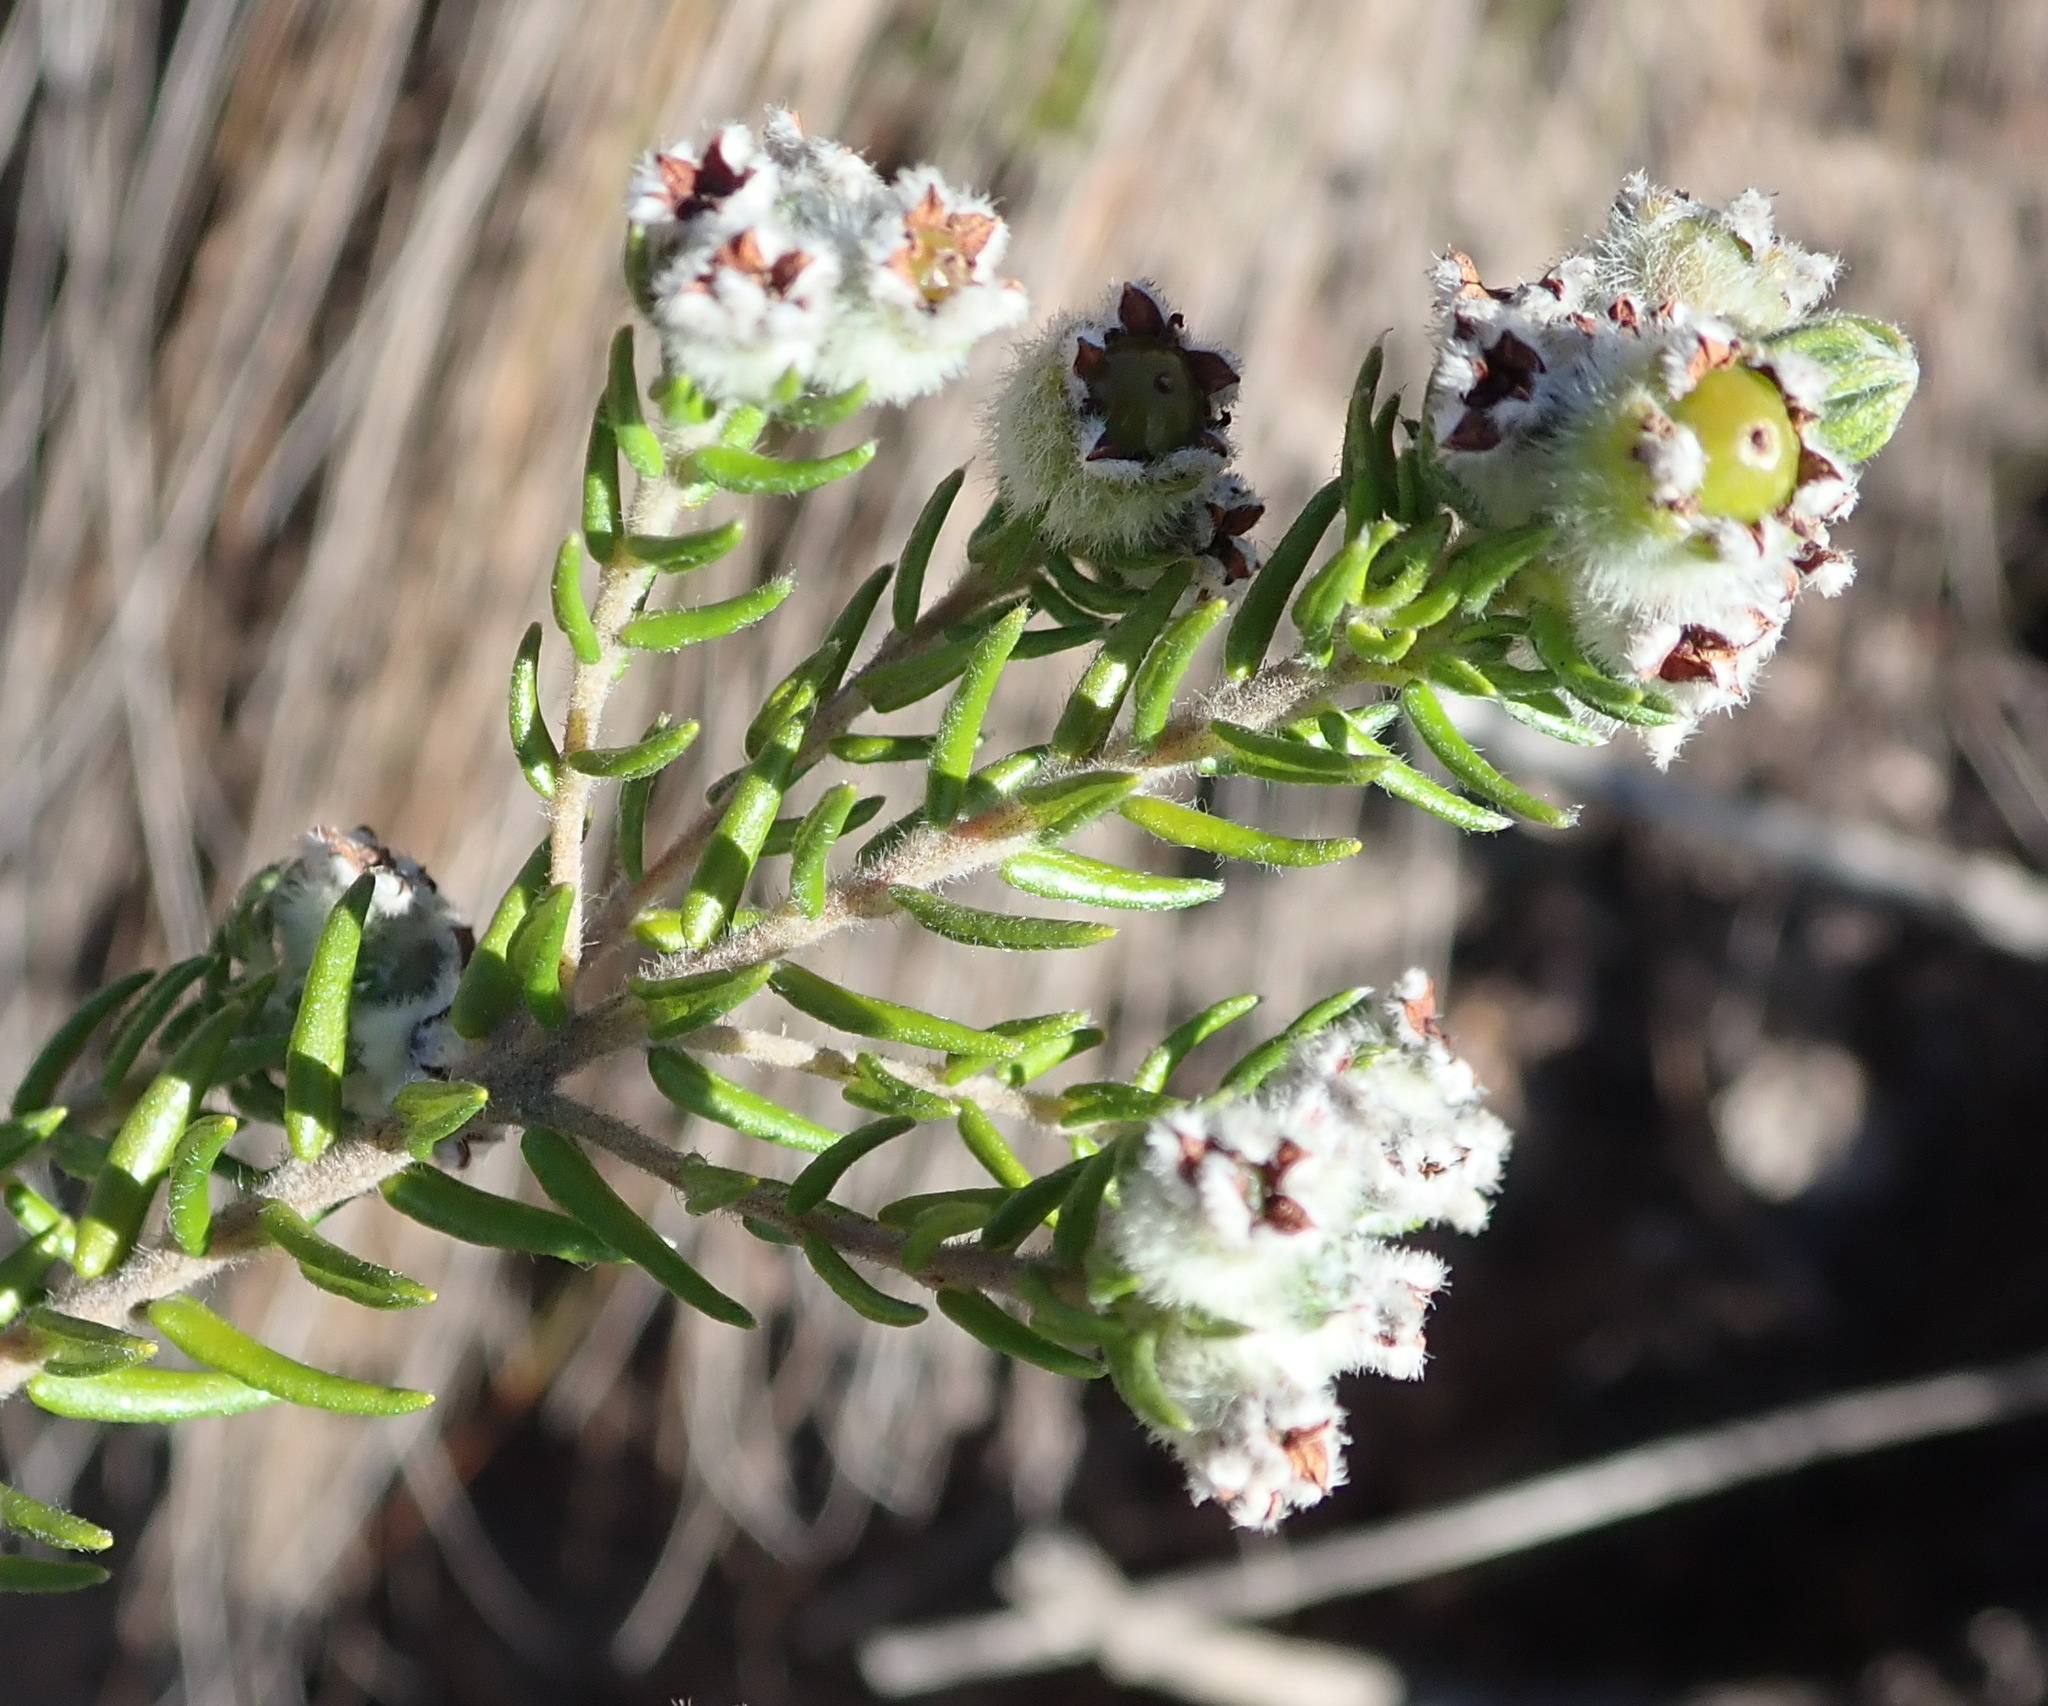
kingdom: Plantae
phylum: Tracheophyta
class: Magnoliopsida
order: Rosales
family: Rhamnaceae
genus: Phylica
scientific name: Phylica purpurea
